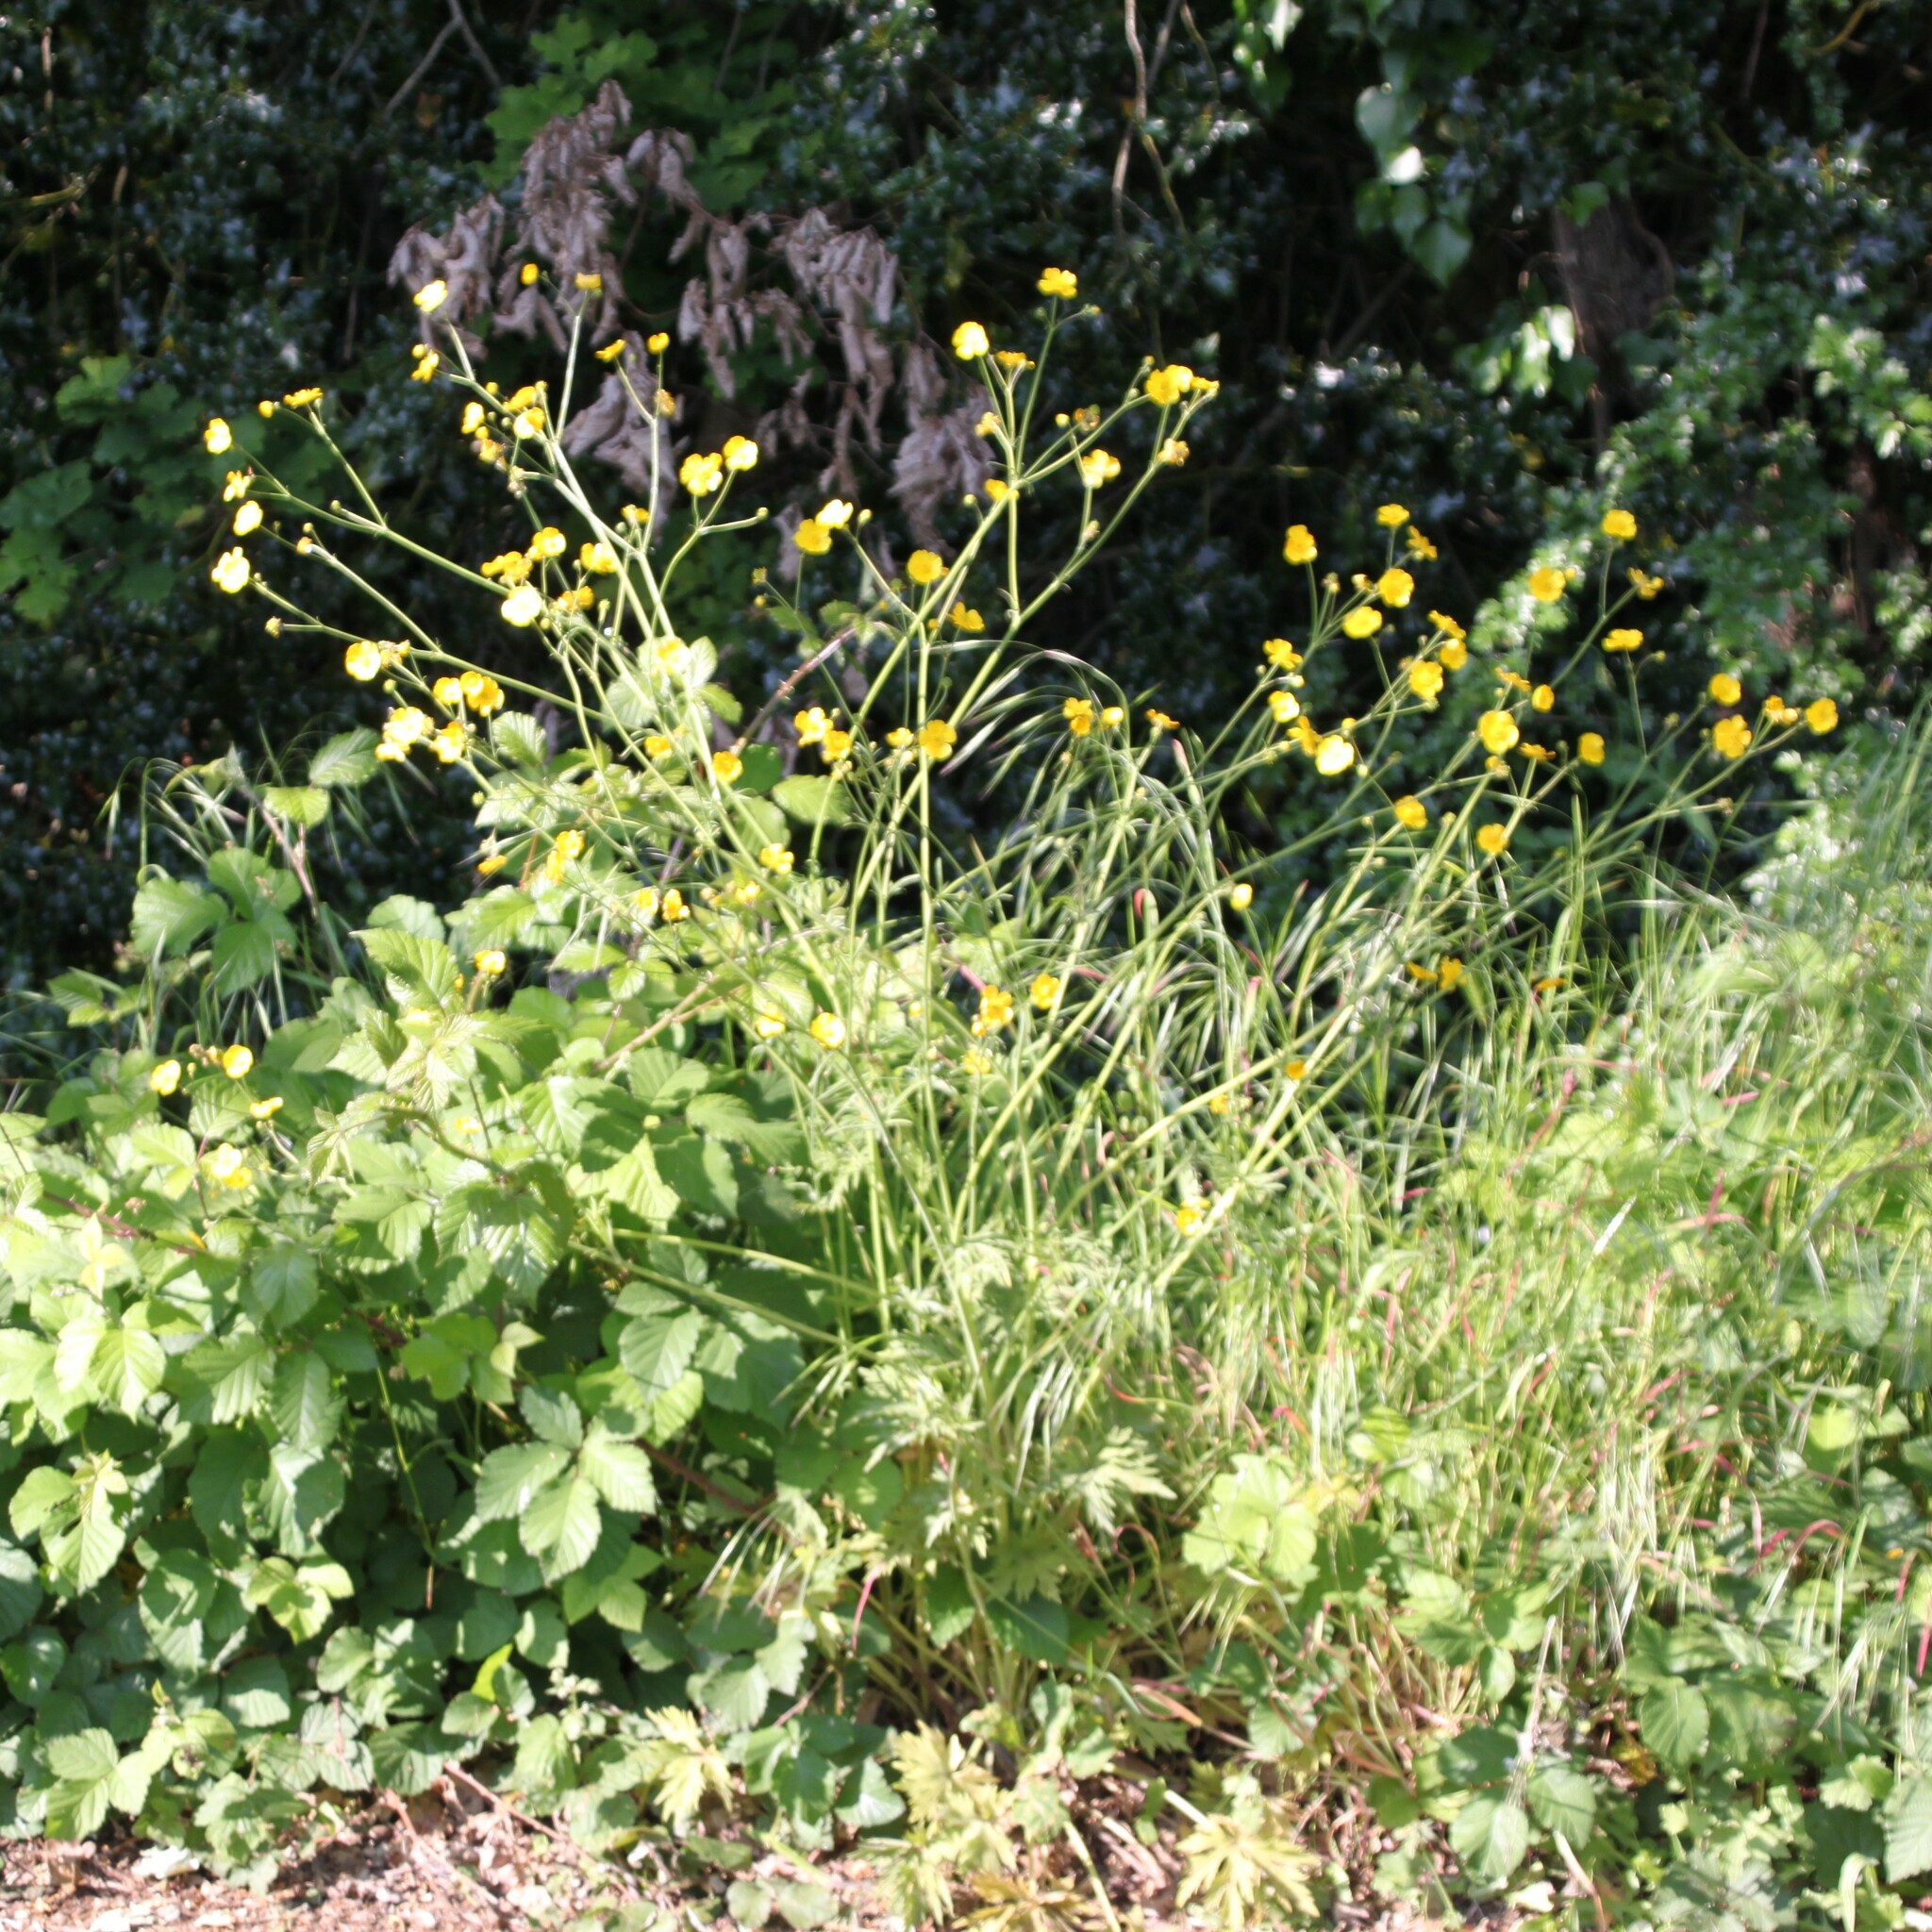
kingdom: Plantae
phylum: Tracheophyta
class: Magnoliopsida
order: Ranunculales
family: Ranunculaceae
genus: Ranunculus
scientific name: Ranunculus acris
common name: Meadow buttercup
